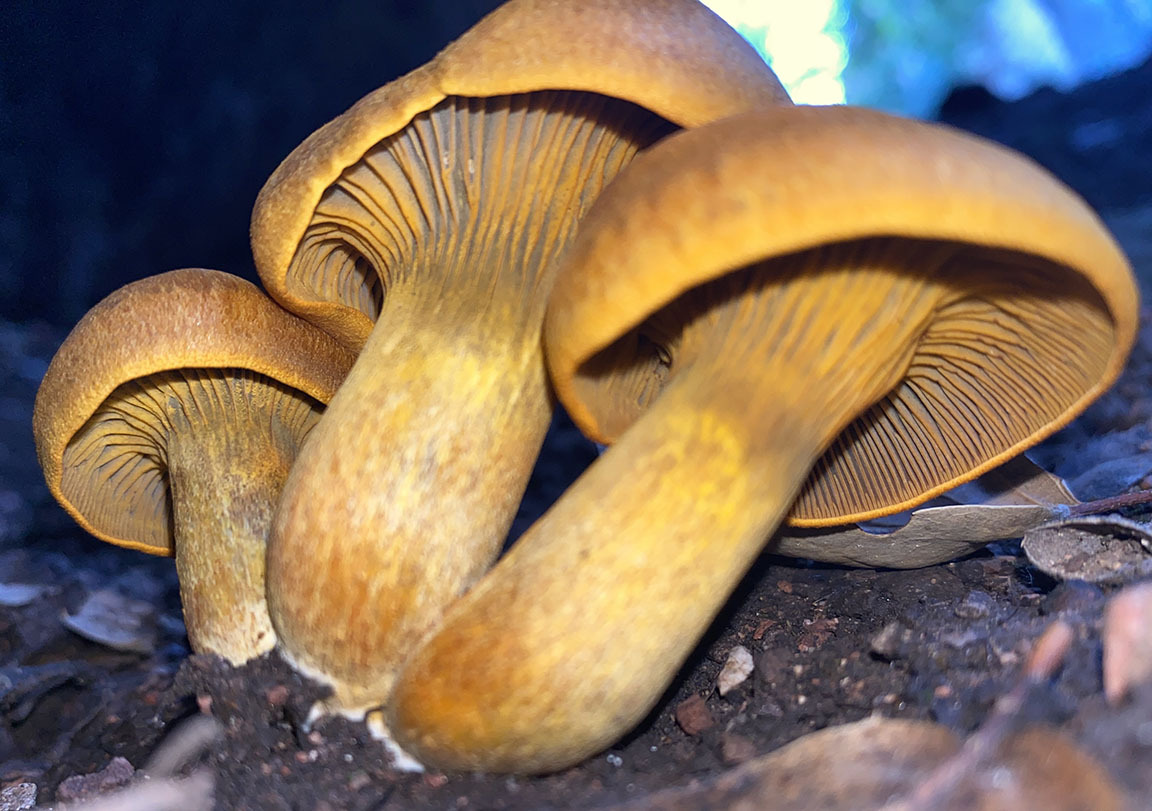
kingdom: Fungi
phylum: Basidiomycota
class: Agaricomycetes
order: Agaricales
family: Omphalotaceae
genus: Omphalotus
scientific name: Omphalotus olivascens
